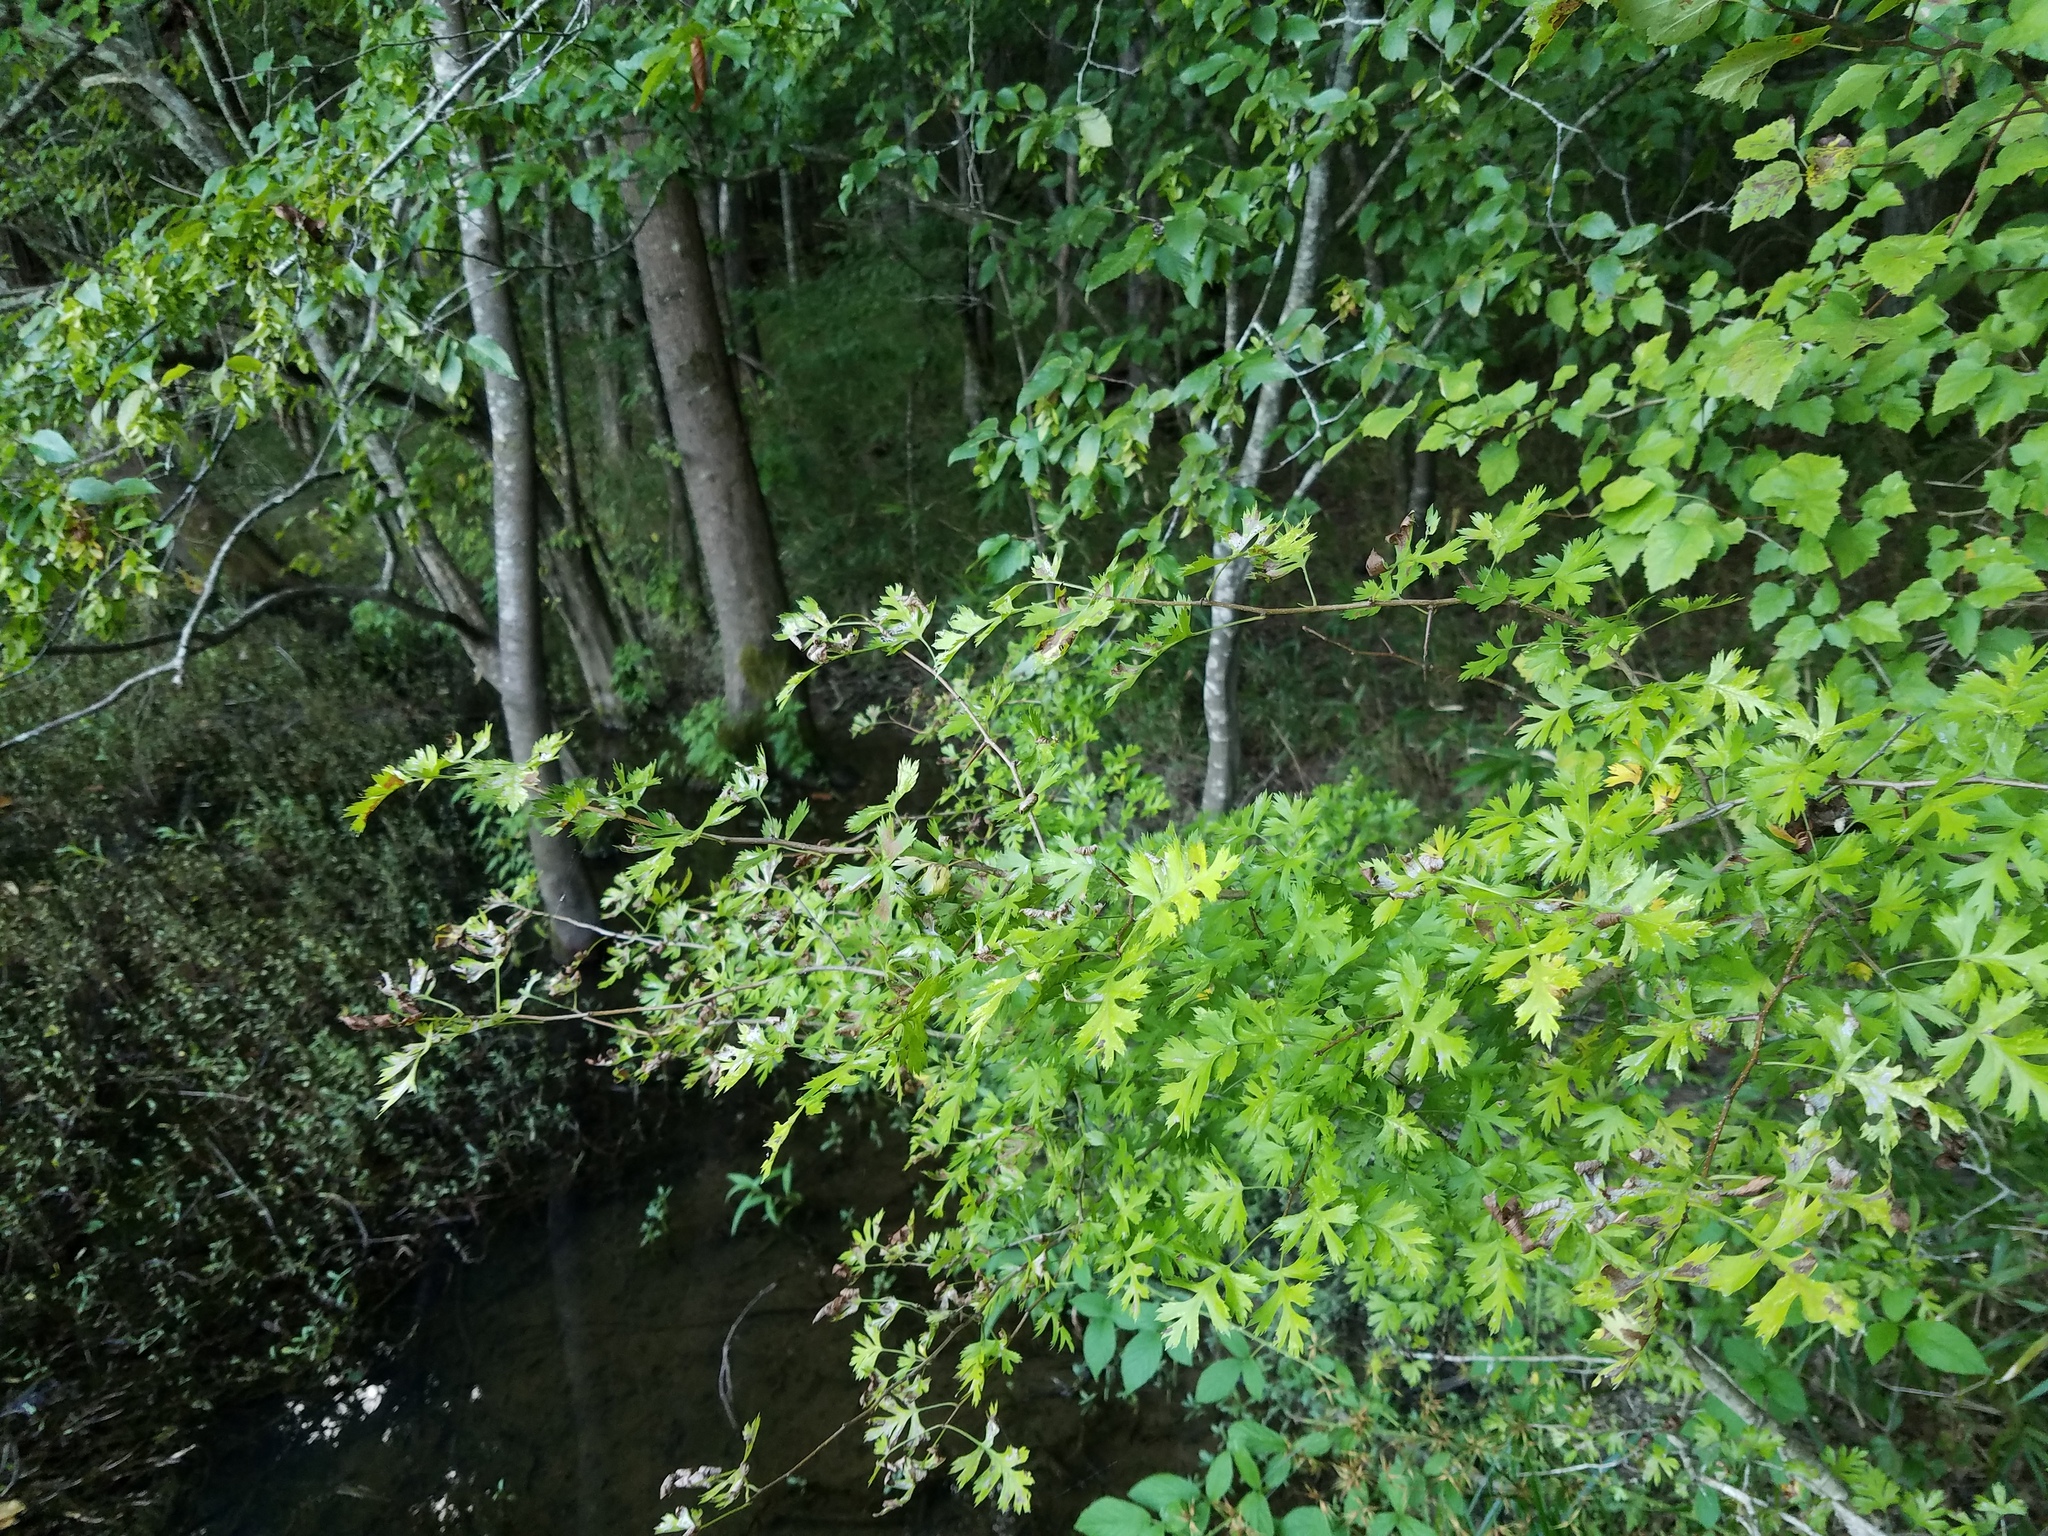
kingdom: Plantae
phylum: Tracheophyta
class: Magnoliopsida
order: Rosales
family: Rosaceae
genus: Crataegus
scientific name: Crataegus marshallii
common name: Parsley-hawthorn
